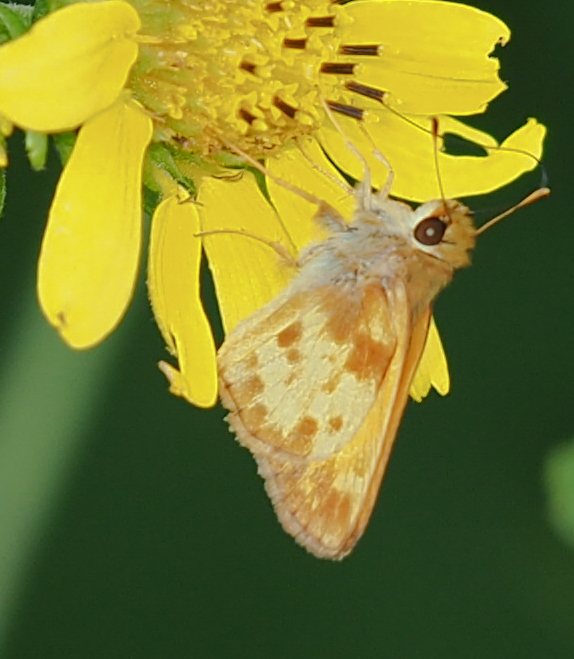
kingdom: Animalia
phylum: Arthropoda
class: Insecta
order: Lepidoptera
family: Hesperiidae
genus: Lon
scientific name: Lon zabulon
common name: Zabulon skipper
